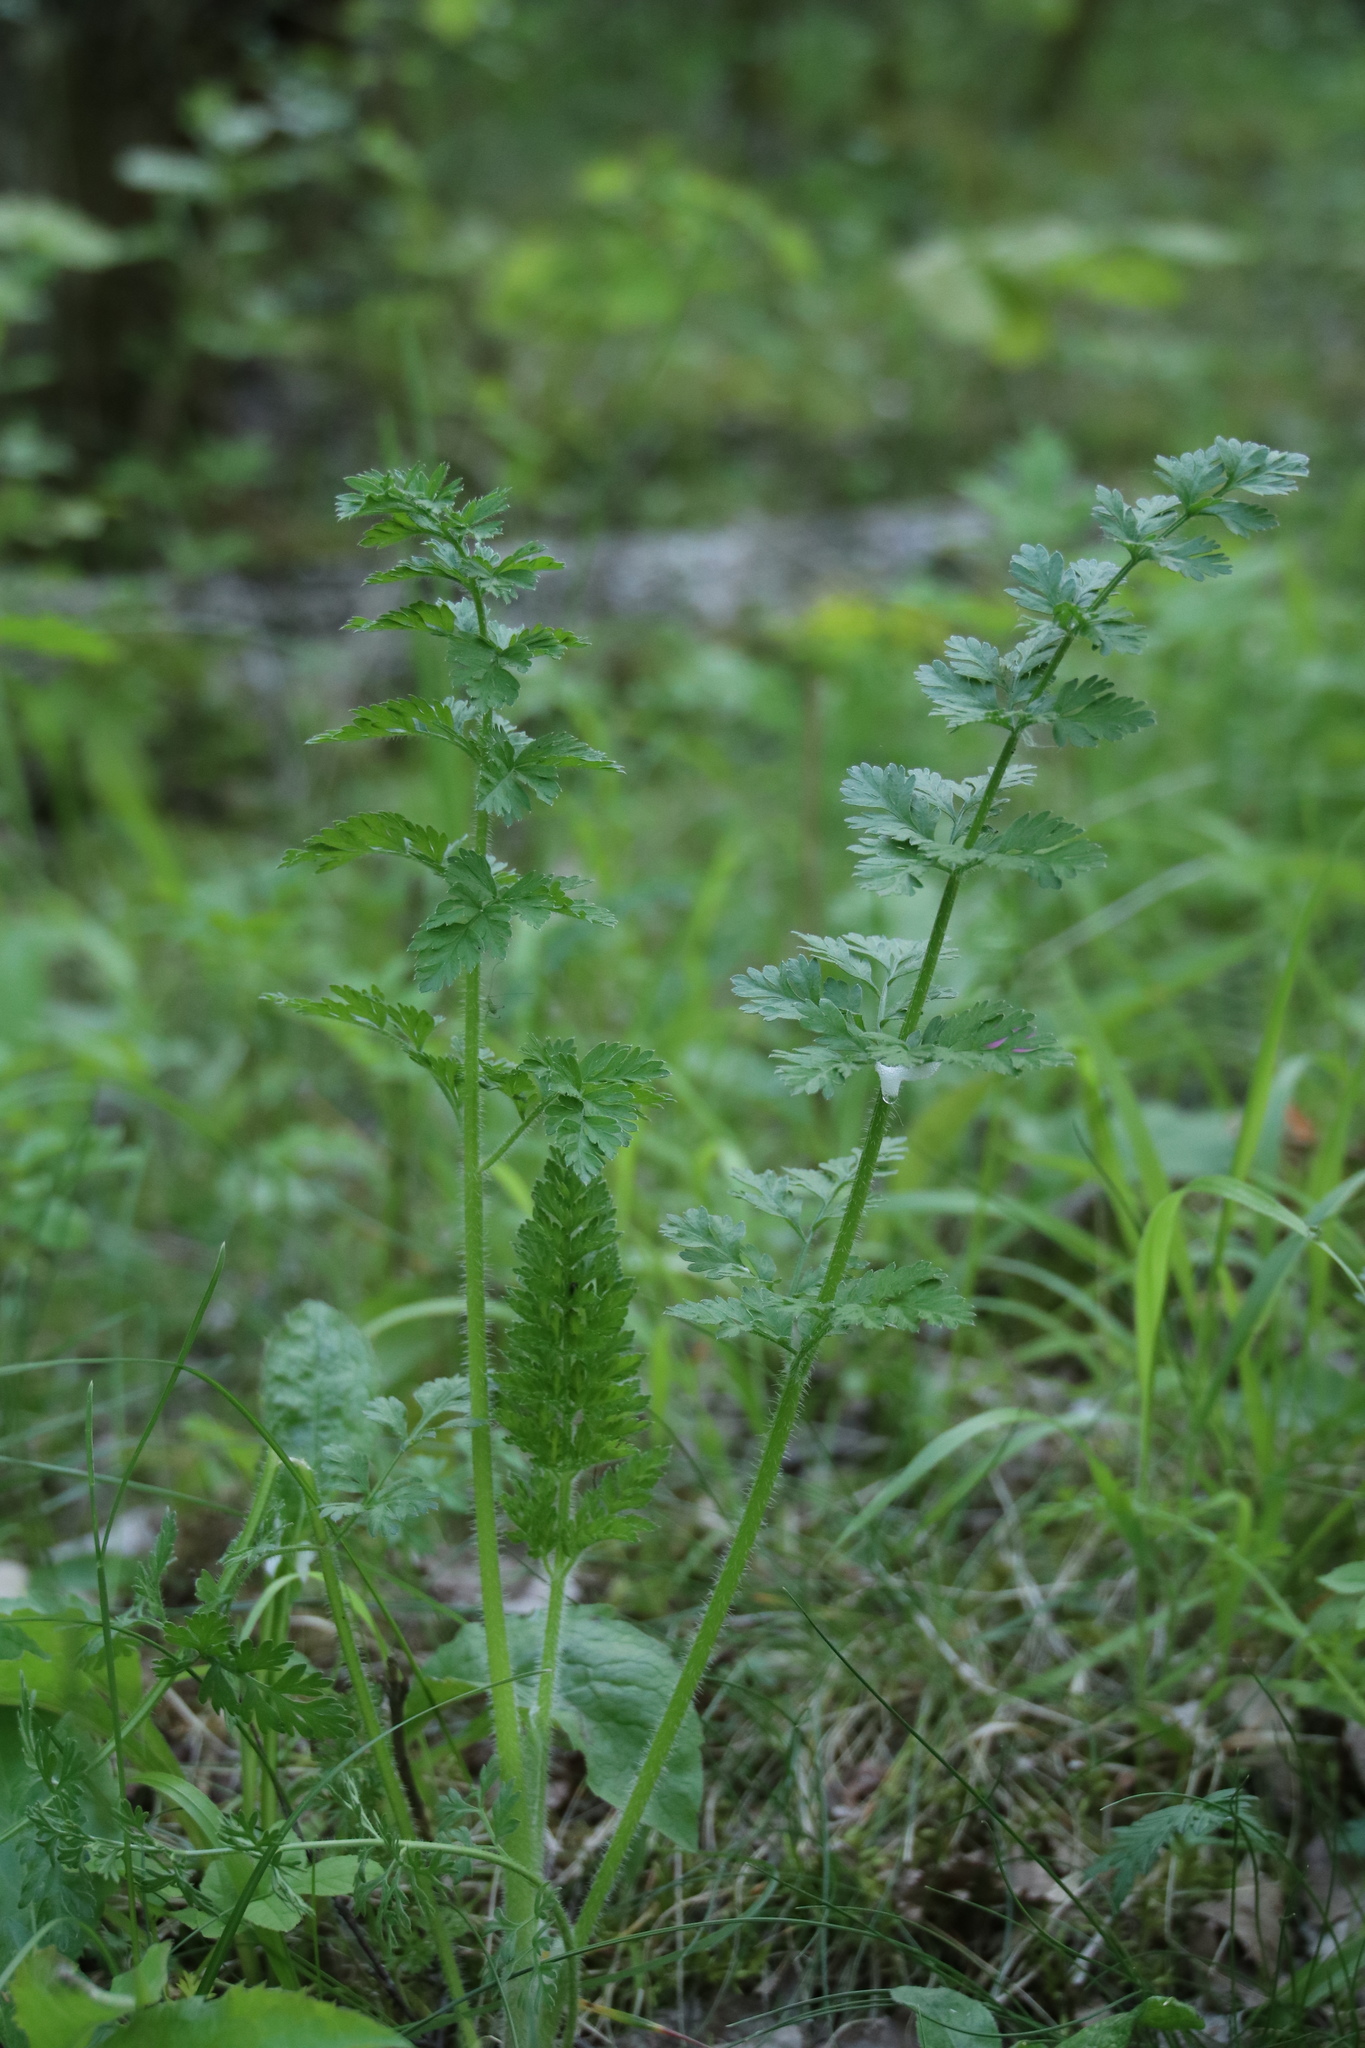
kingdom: Plantae
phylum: Tracheophyta
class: Magnoliopsida
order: Apiales
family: Apiaceae
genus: Daucus
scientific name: Daucus carota
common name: Wild carrot
